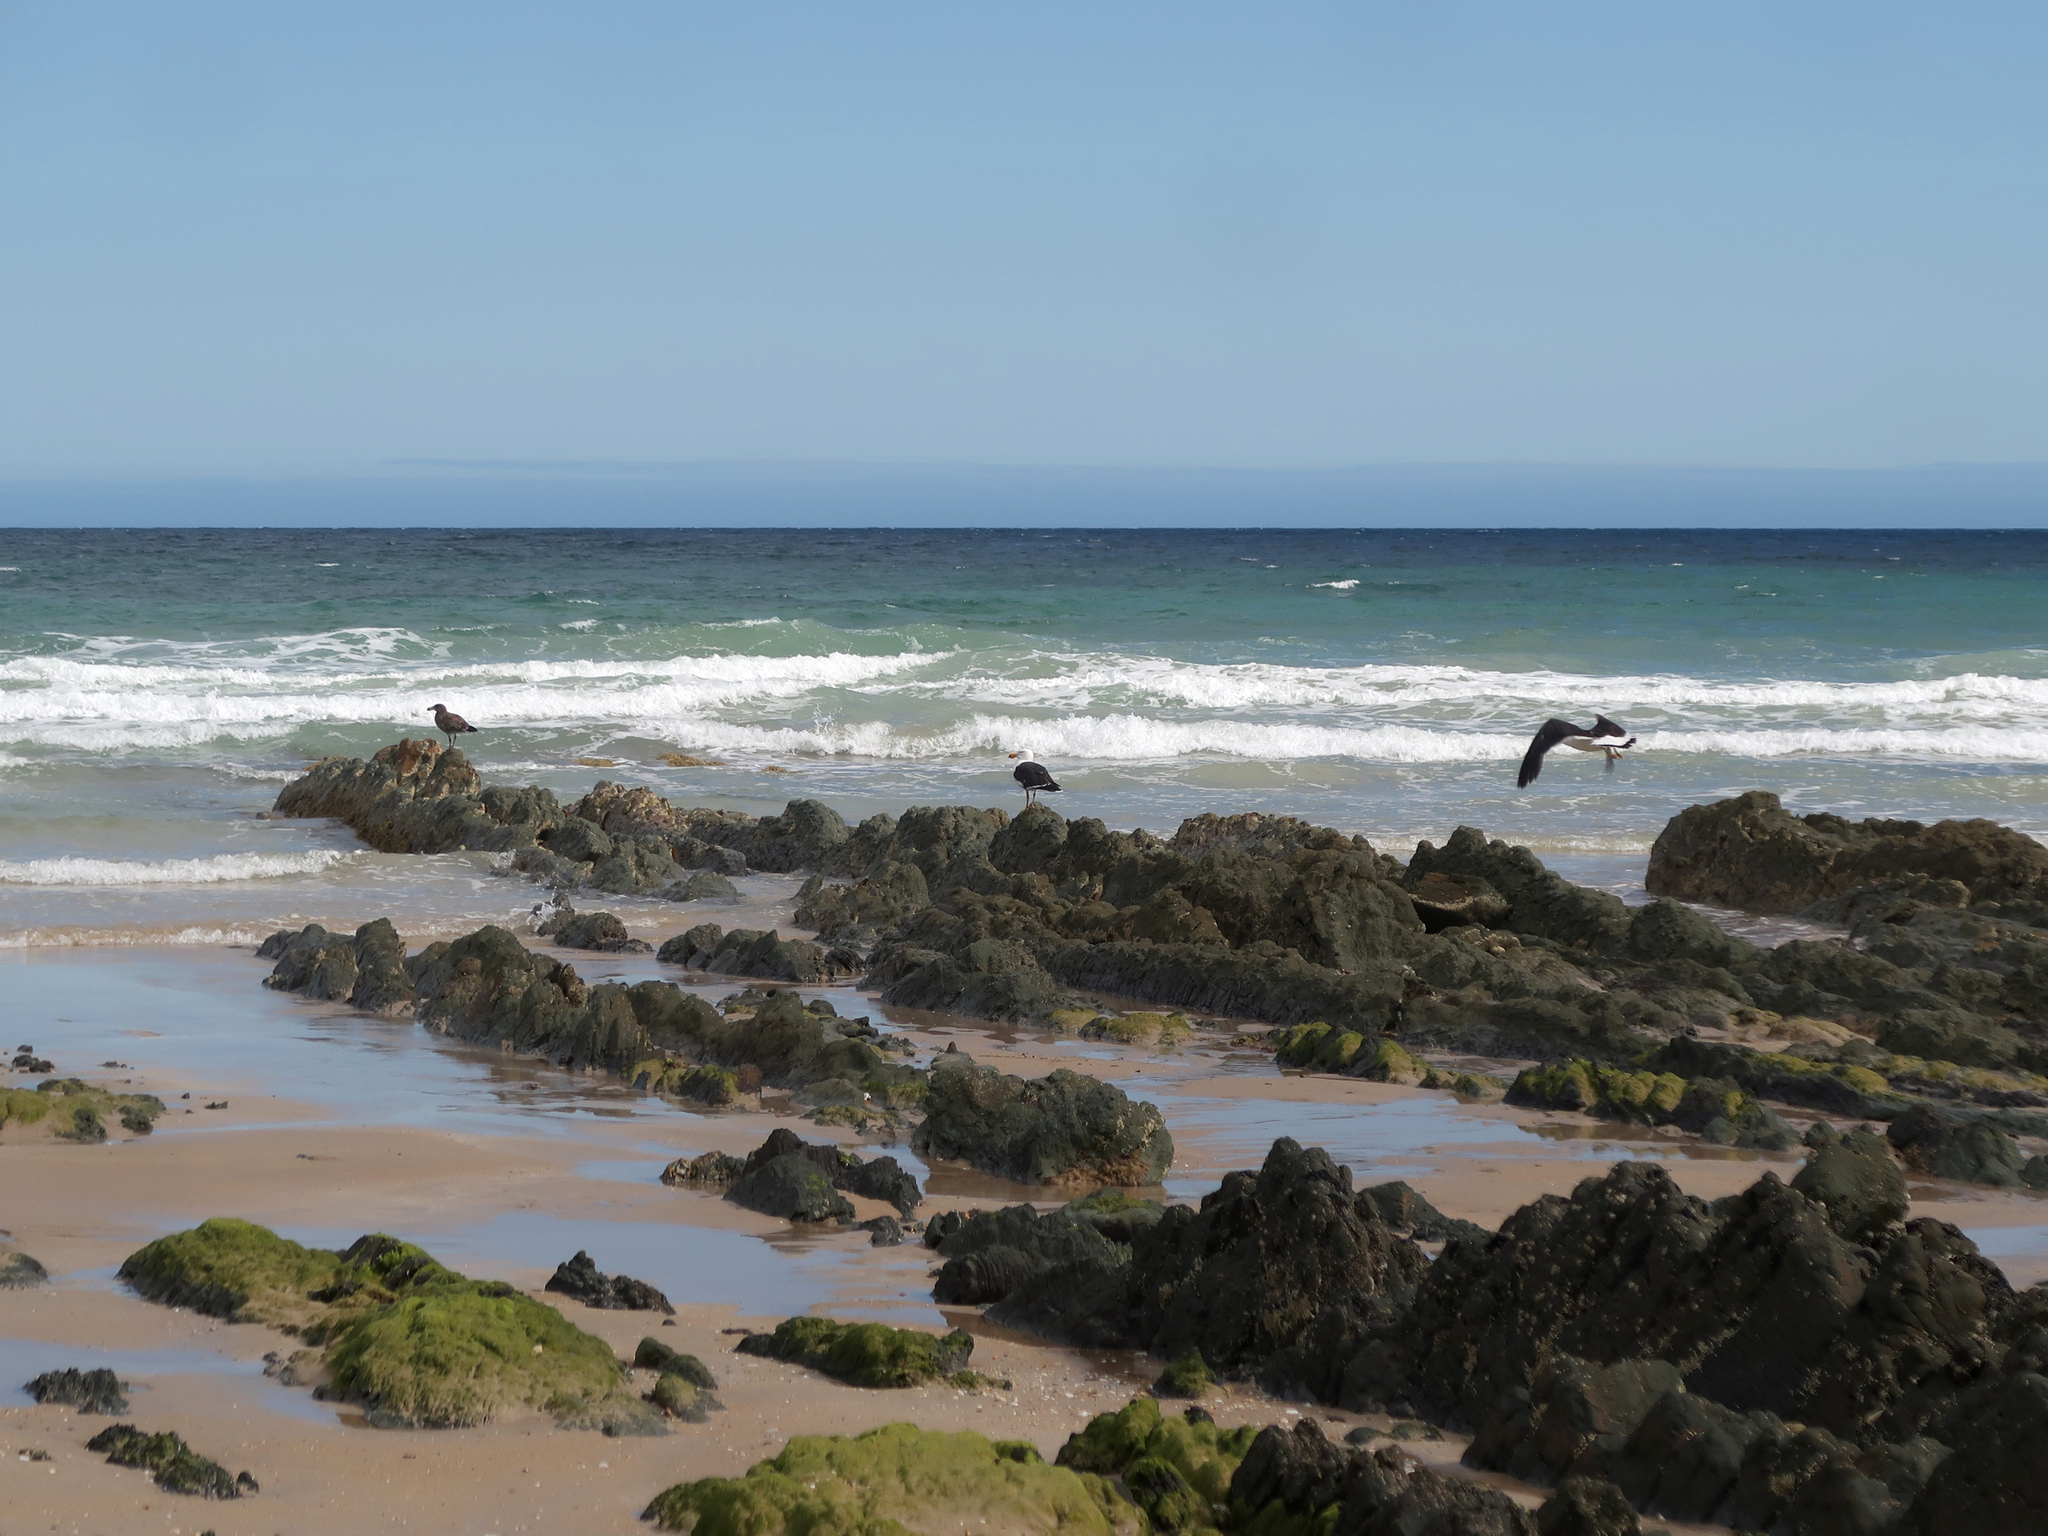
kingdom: Animalia
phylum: Chordata
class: Aves
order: Charadriiformes
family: Laridae
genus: Larus
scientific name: Larus pacificus
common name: Pacific gull
